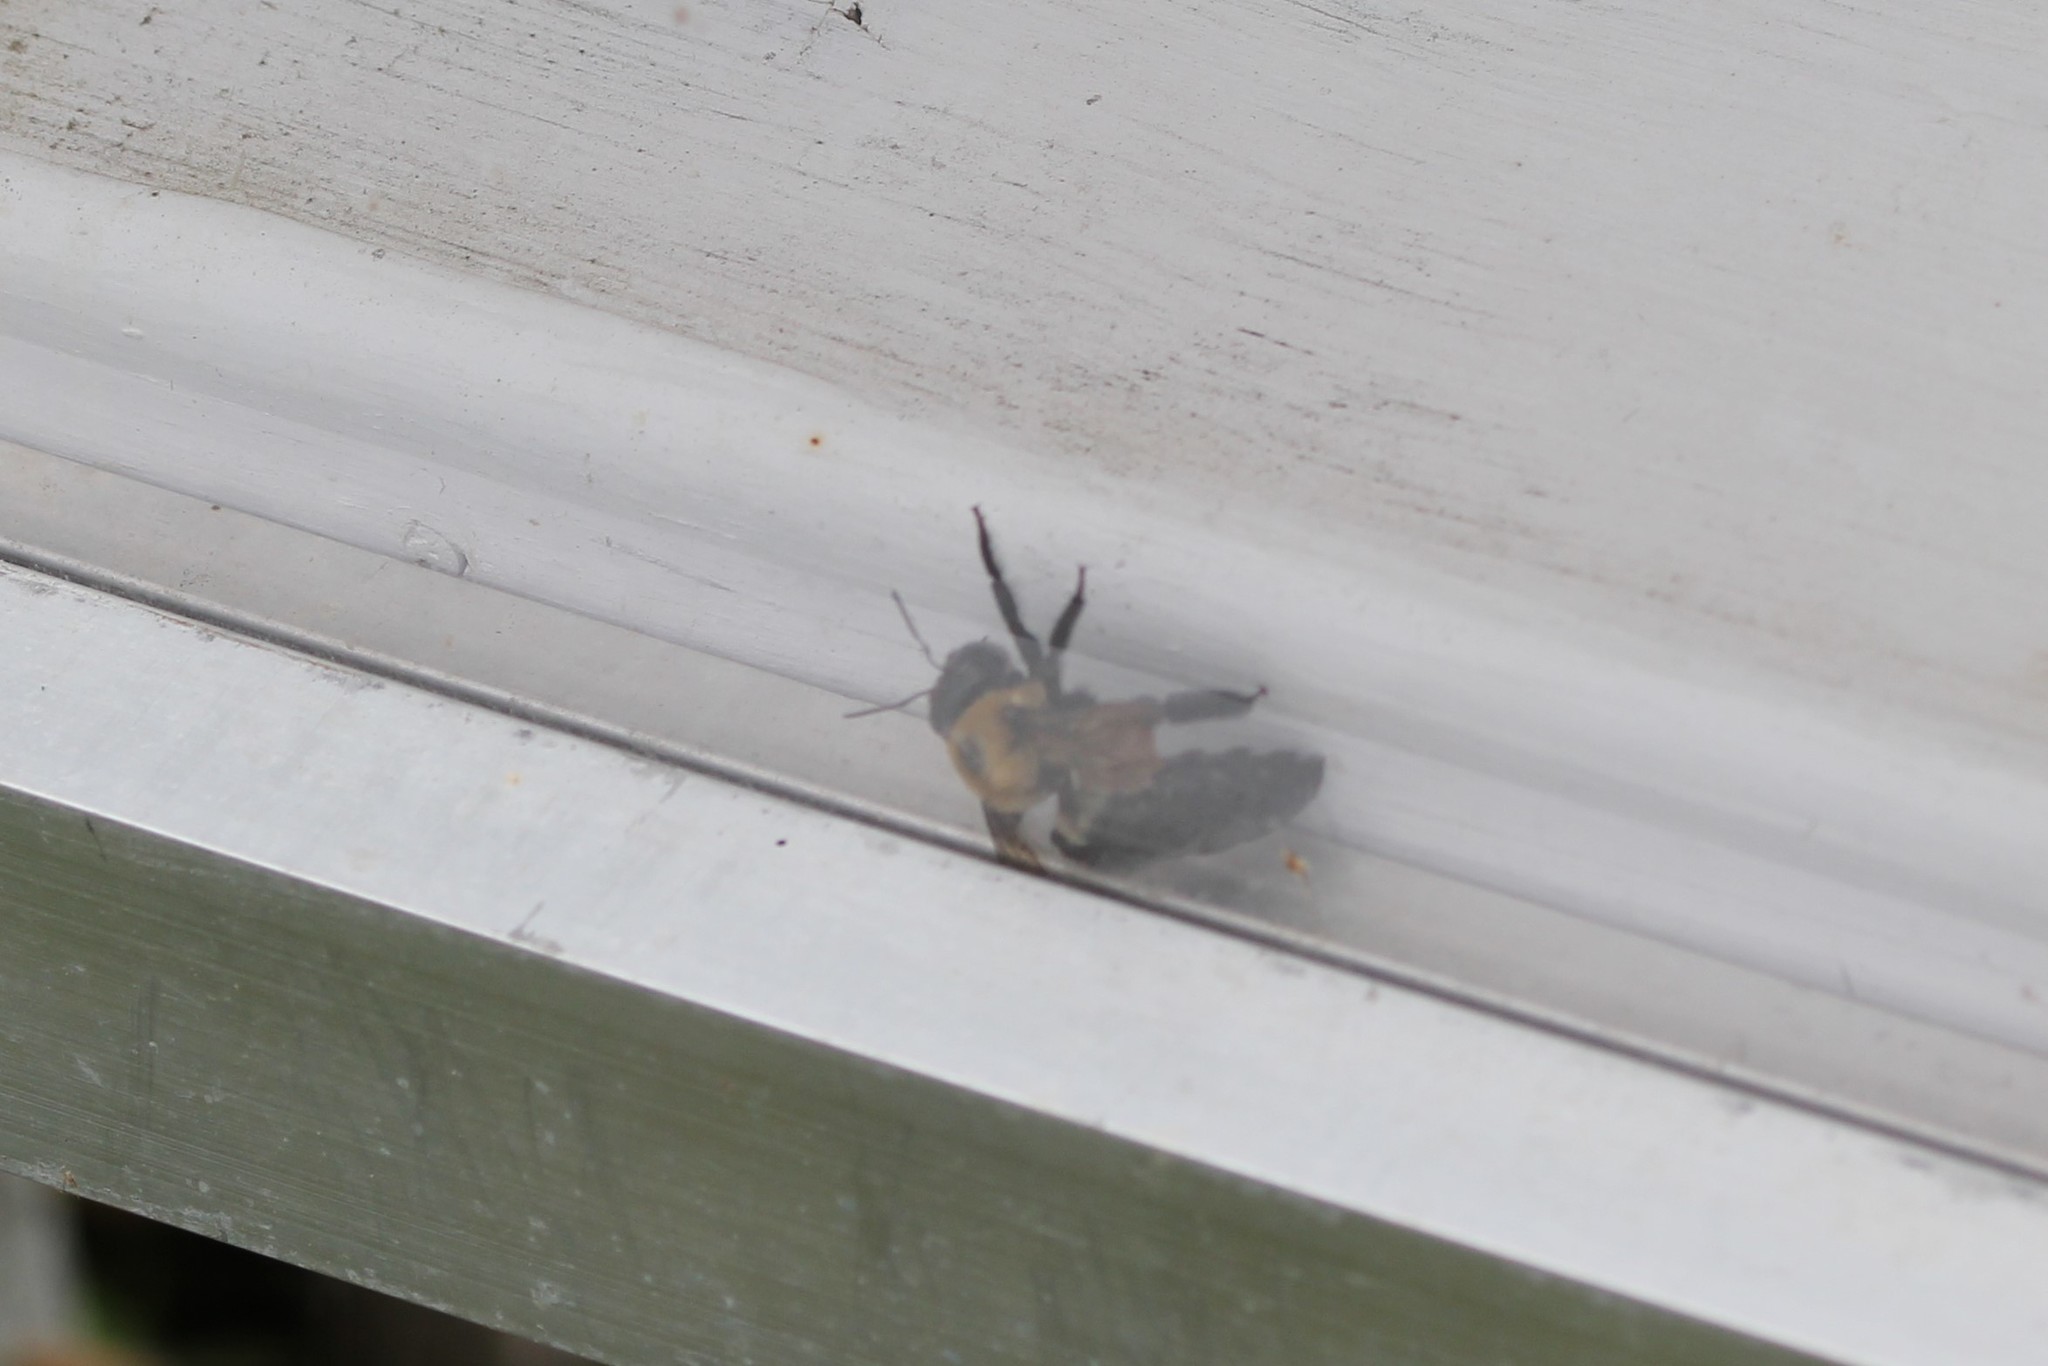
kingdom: Animalia
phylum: Arthropoda
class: Insecta
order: Hymenoptera
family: Apidae
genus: Xylocopa
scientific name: Xylocopa virginica
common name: Carpenter bee
